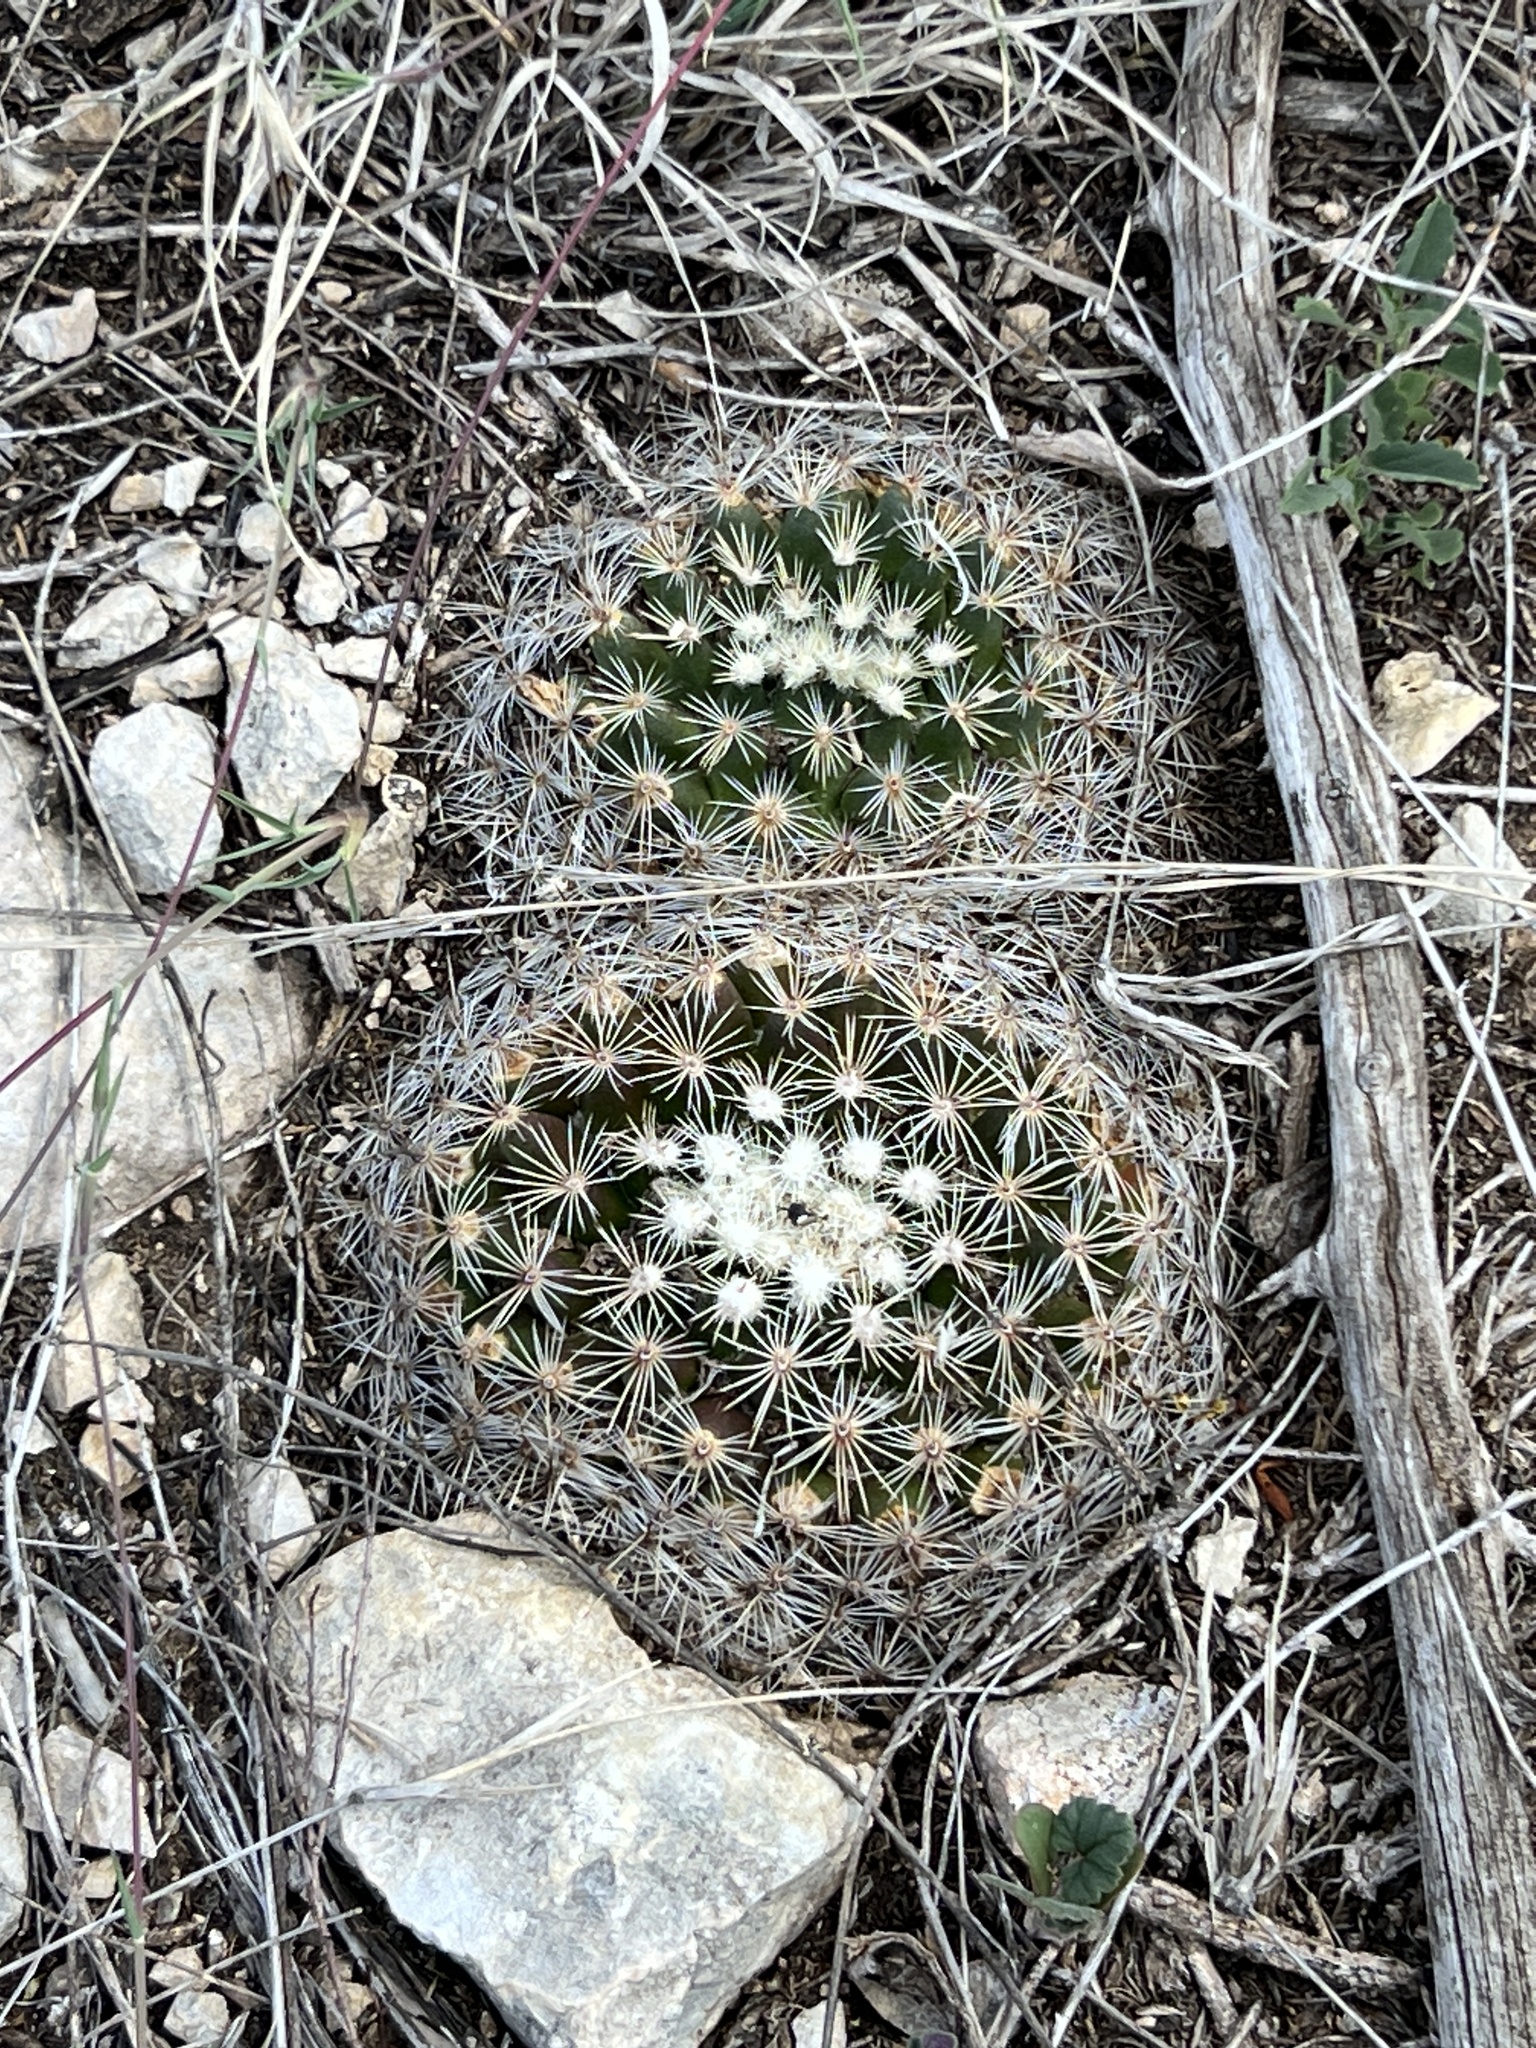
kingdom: Plantae
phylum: Tracheophyta
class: Magnoliopsida
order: Caryophyllales
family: Cactaceae
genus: Mammillaria
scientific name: Mammillaria heyderi
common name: Little nipple cactus
